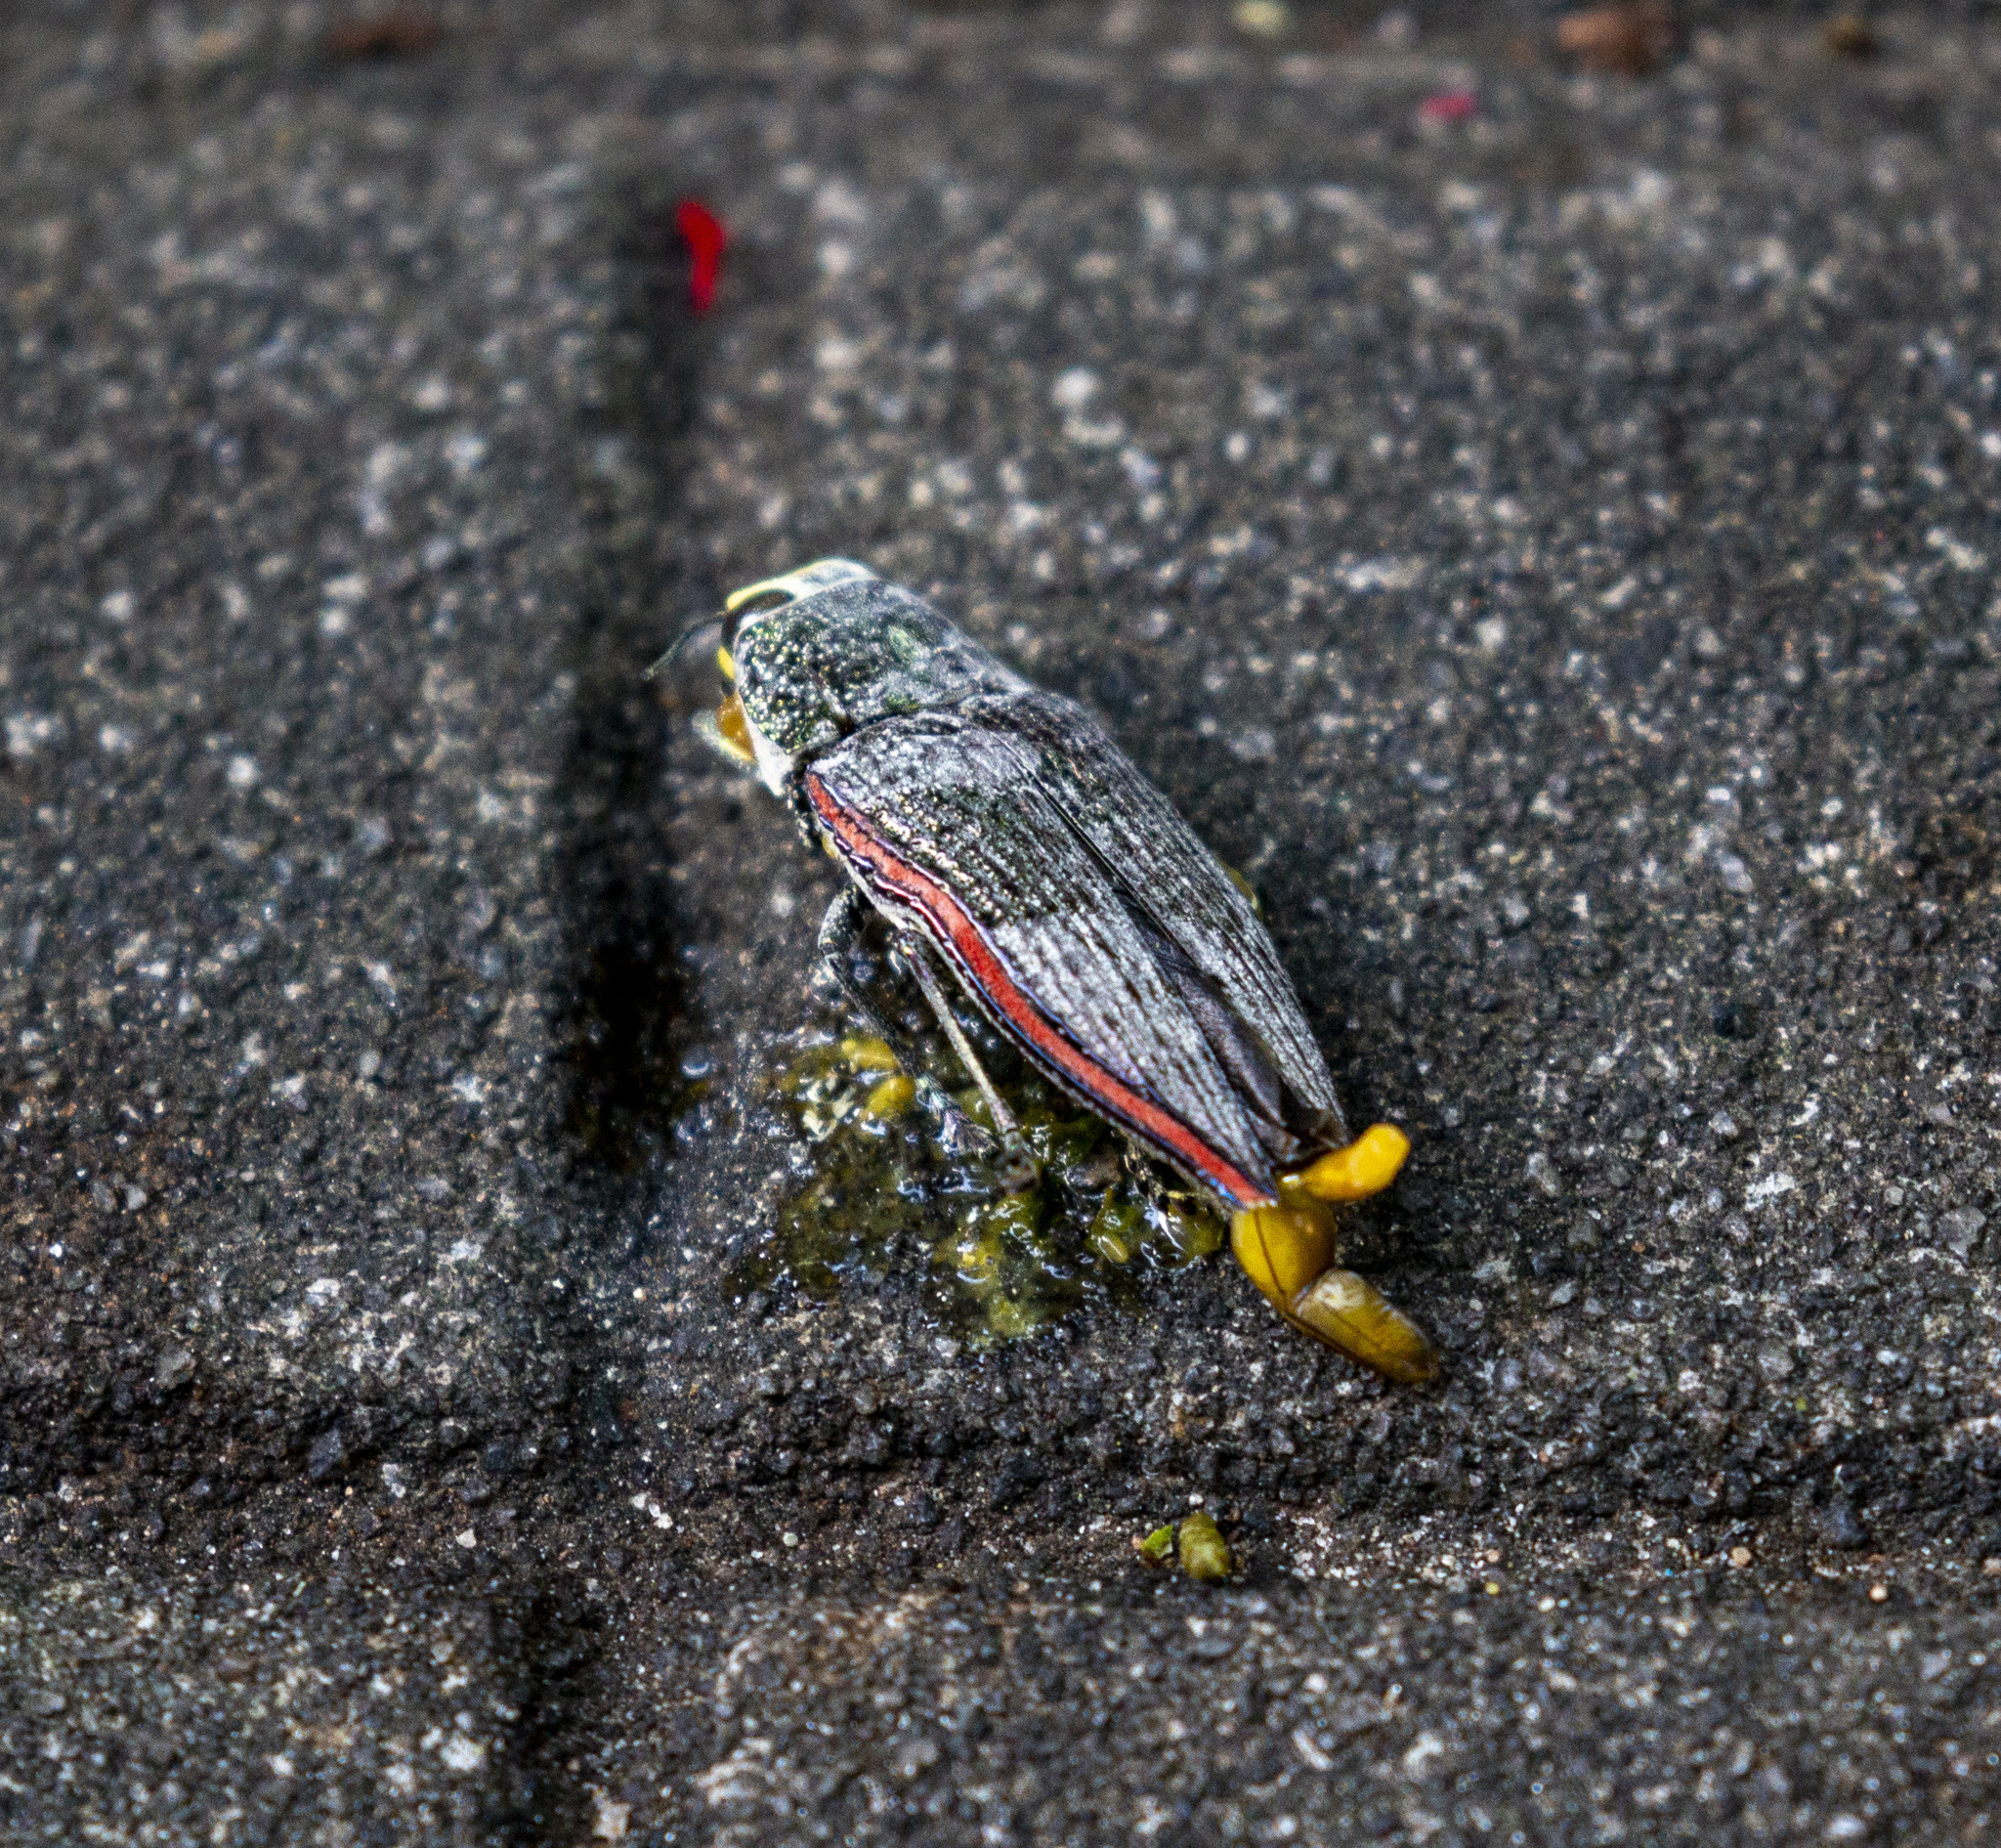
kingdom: Animalia
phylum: Arthropoda
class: Insecta
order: Coleoptera
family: Buprestidae
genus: Lampetis
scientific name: Lampetis roseocarinata
